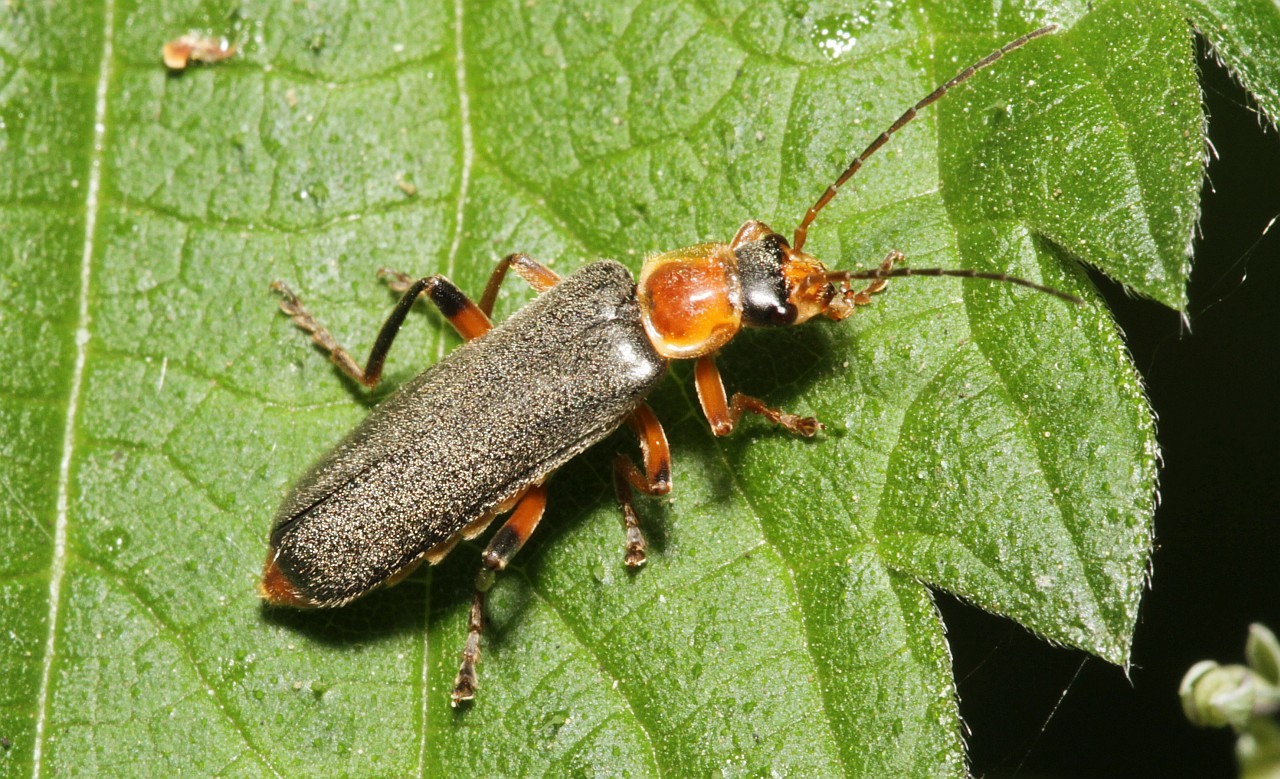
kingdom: Animalia
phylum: Arthropoda
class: Insecta
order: Coleoptera
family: Cantharidae
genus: Cantharis
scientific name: Cantharis nigricans
